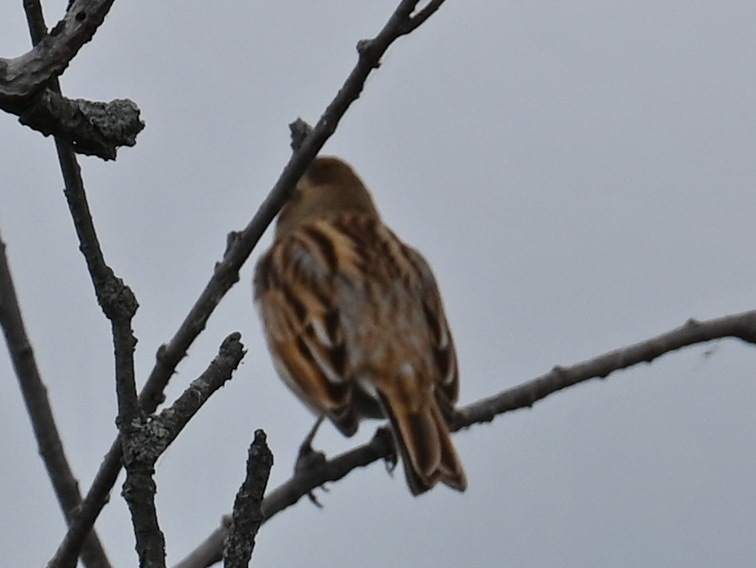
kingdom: Animalia
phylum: Chordata
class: Aves
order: Passeriformes
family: Emberizidae
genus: Emberiza
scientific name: Emberiza schoeniclus
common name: Reed bunting
